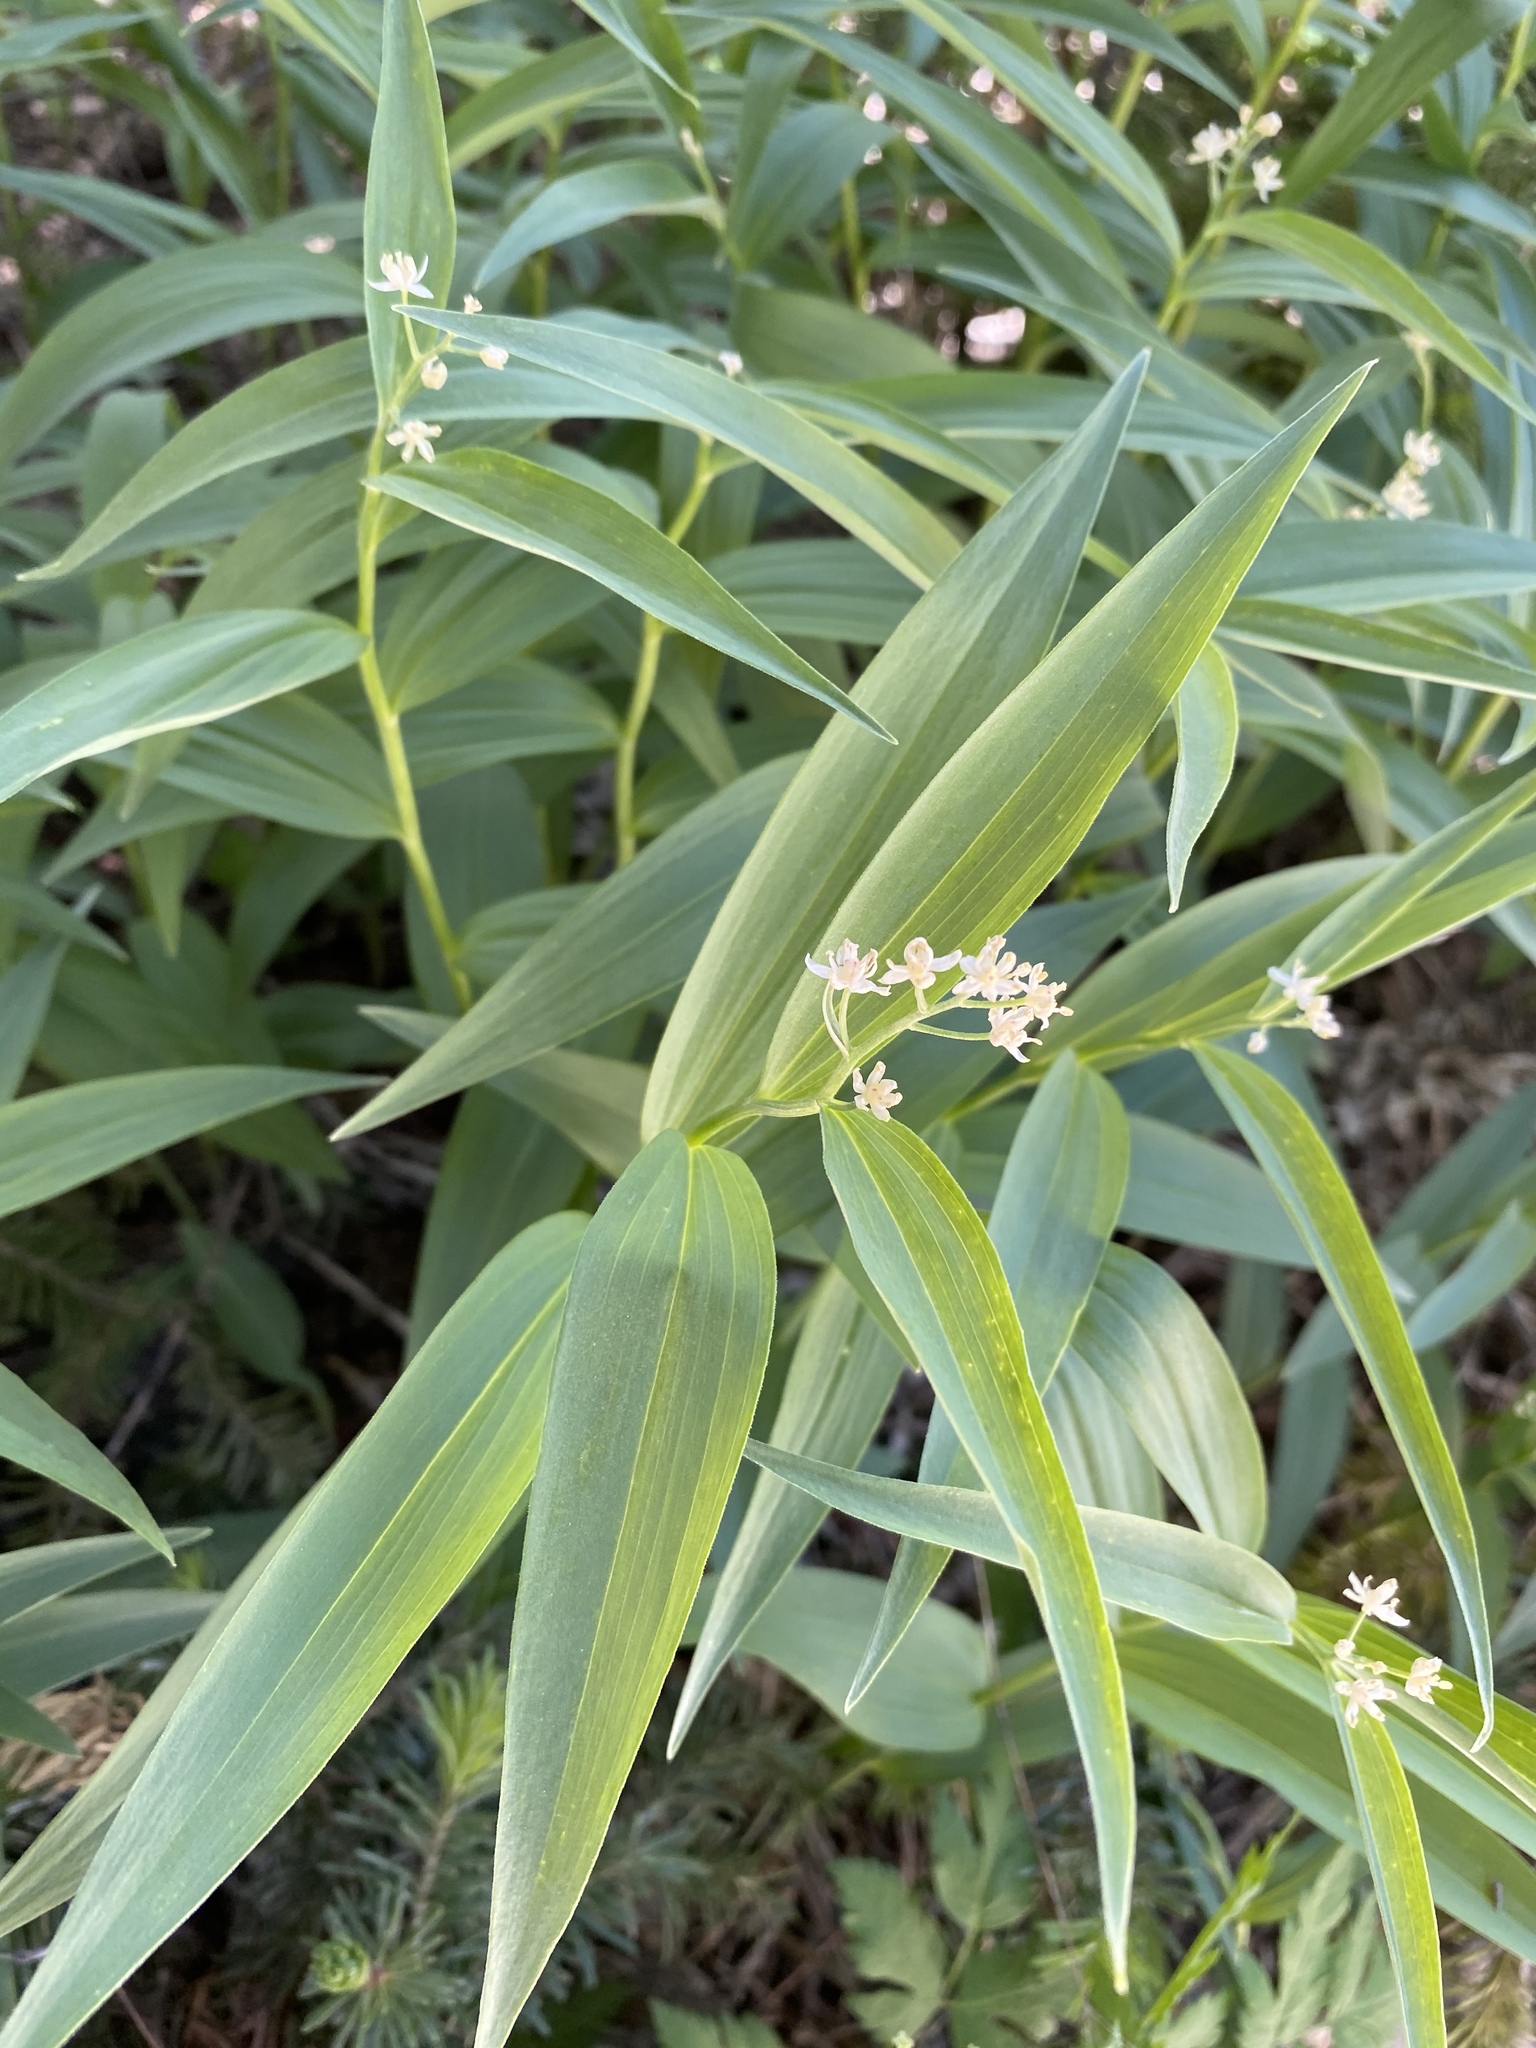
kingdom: Plantae
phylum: Tracheophyta
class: Liliopsida
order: Asparagales
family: Asparagaceae
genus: Maianthemum
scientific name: Maianthemum stellatum
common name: Little false solomon's seal
